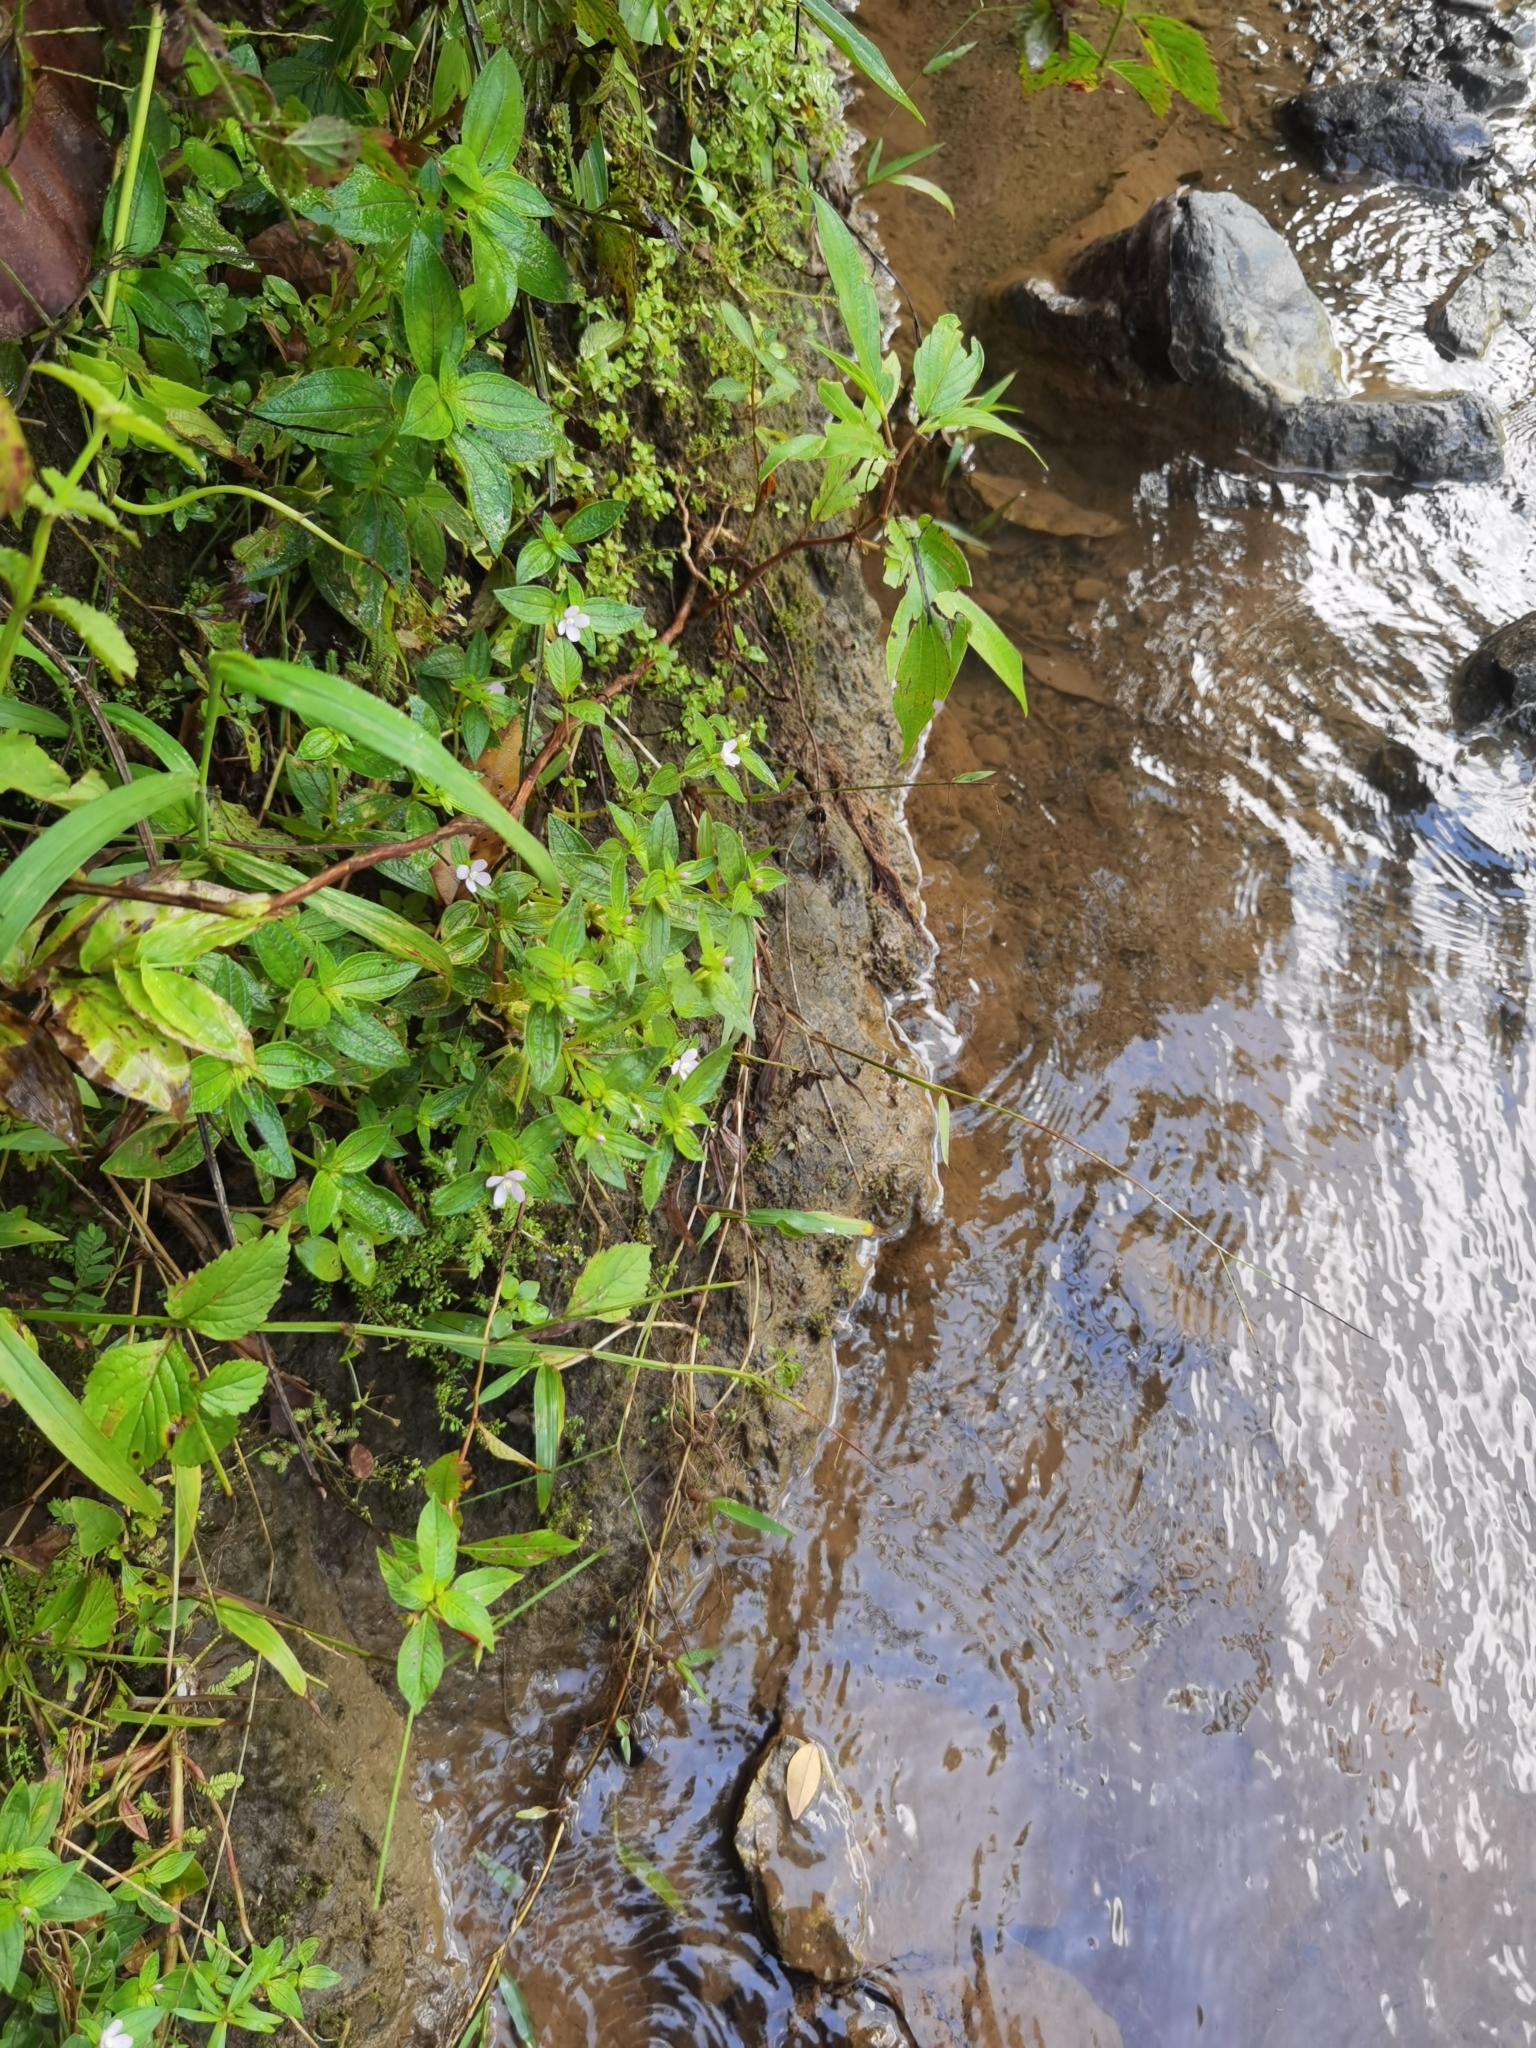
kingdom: Plantae
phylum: Tracheophyta
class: Magnoliopsida
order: Myrtales
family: Melastomataceae
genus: Schwackaea
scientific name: Schwackaea cupheoides
